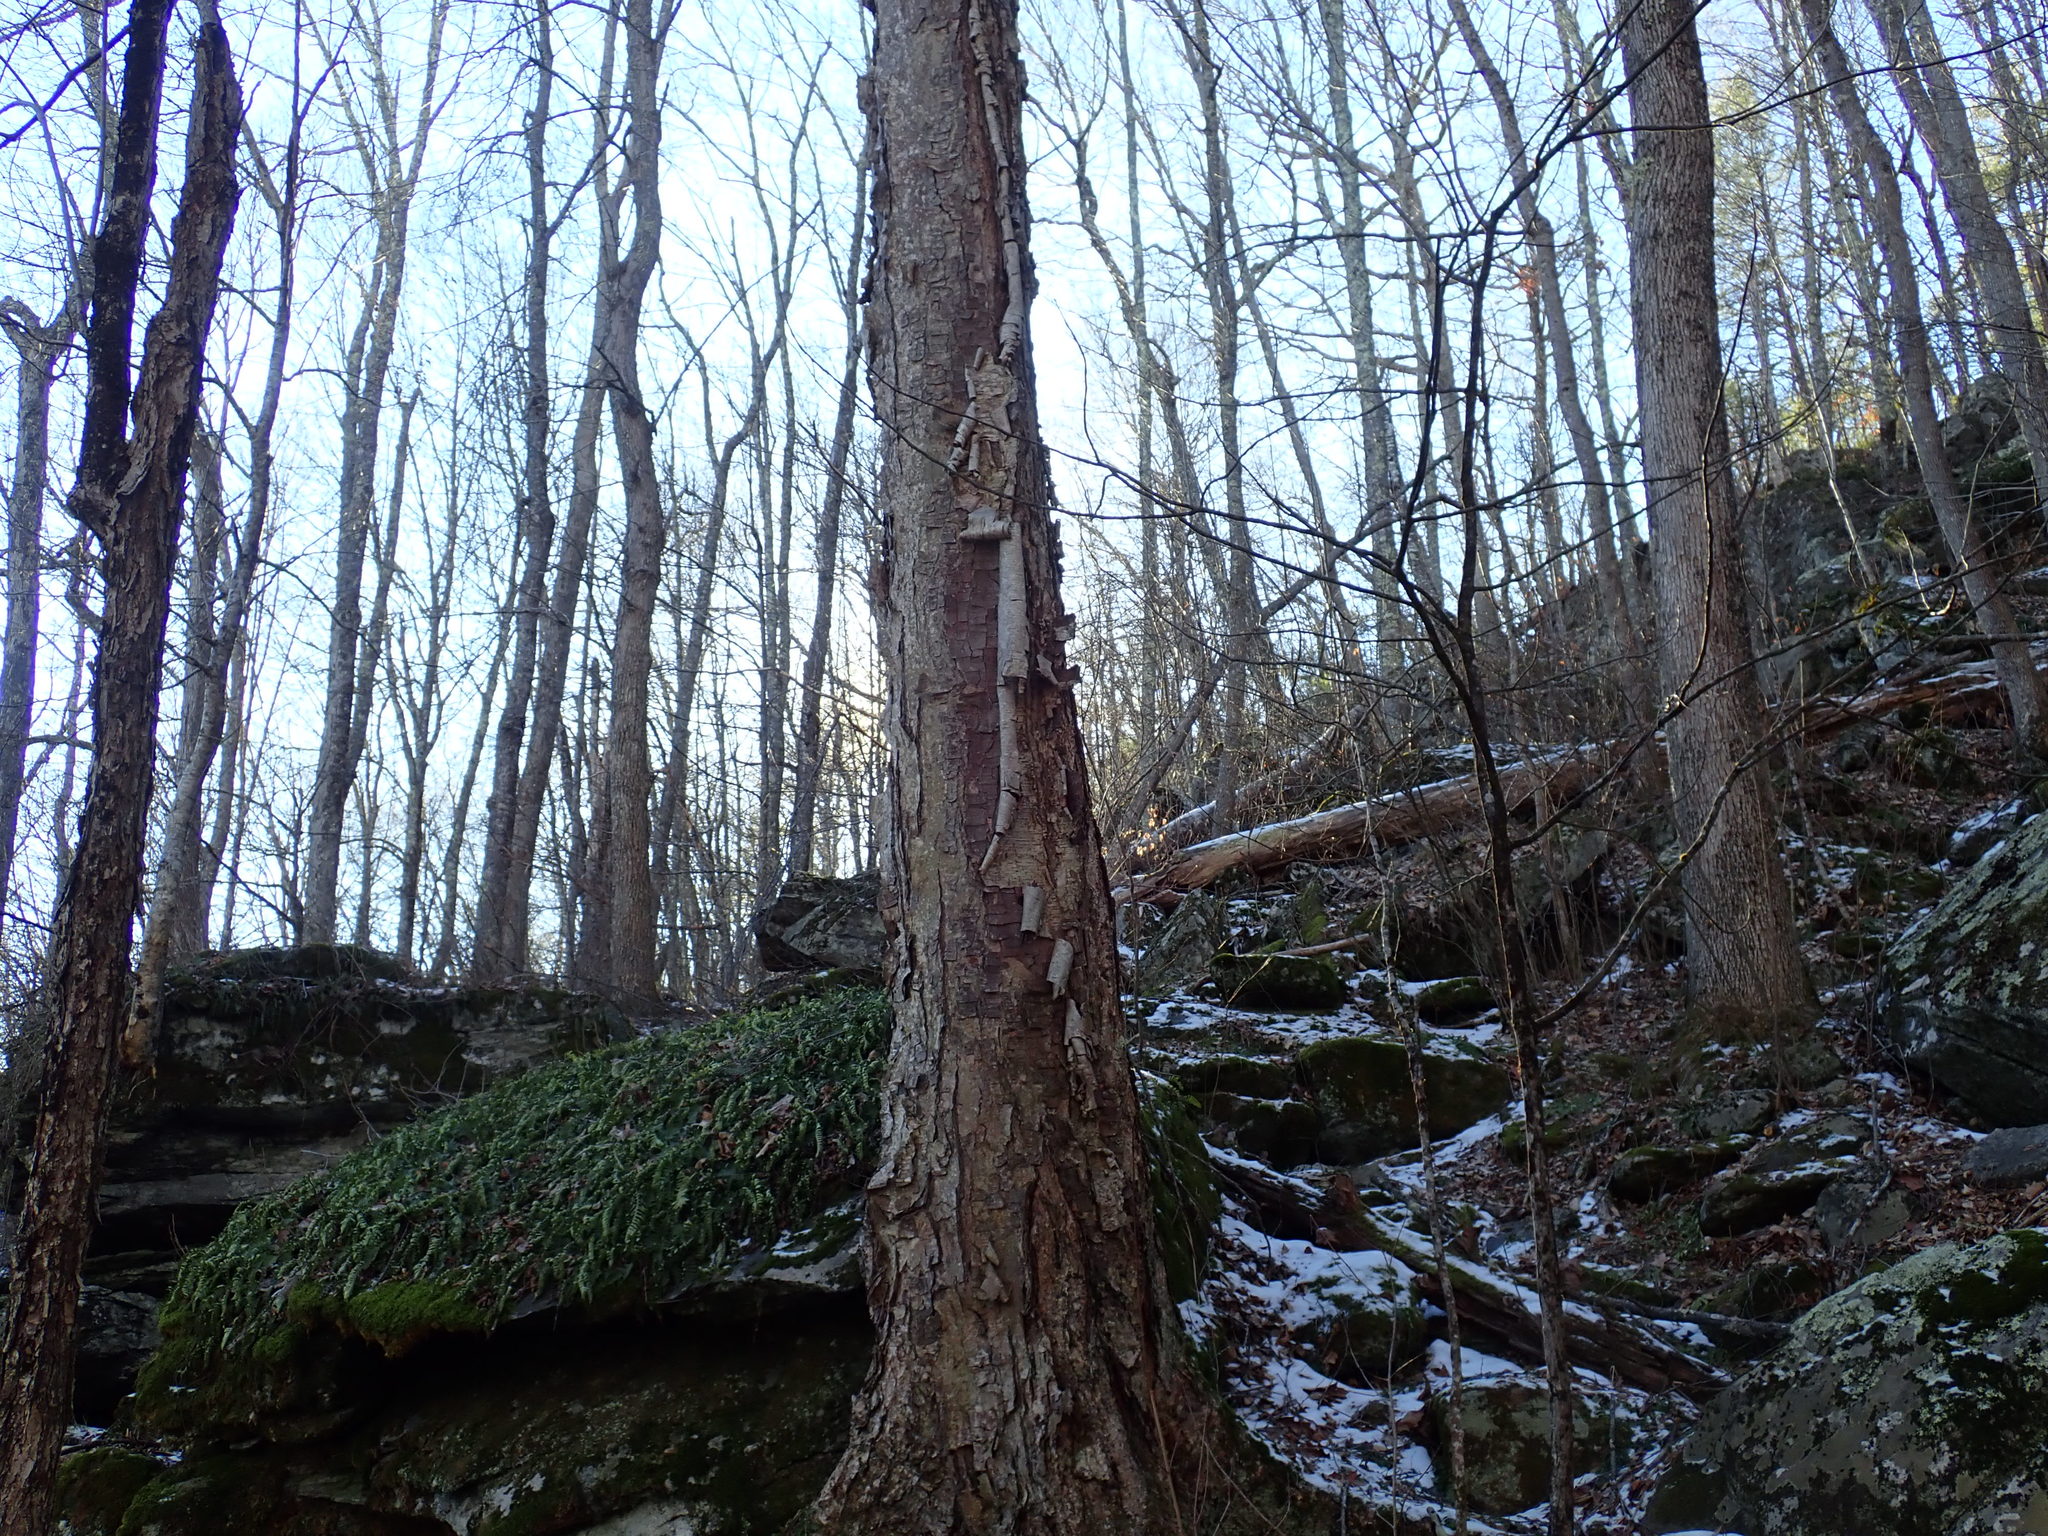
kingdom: Plantae
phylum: Tracheophyta
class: Magnoliopsida
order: Fagales
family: Betulaceae
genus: Betula
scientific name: Betula alleghaniensis
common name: Yellow birch
